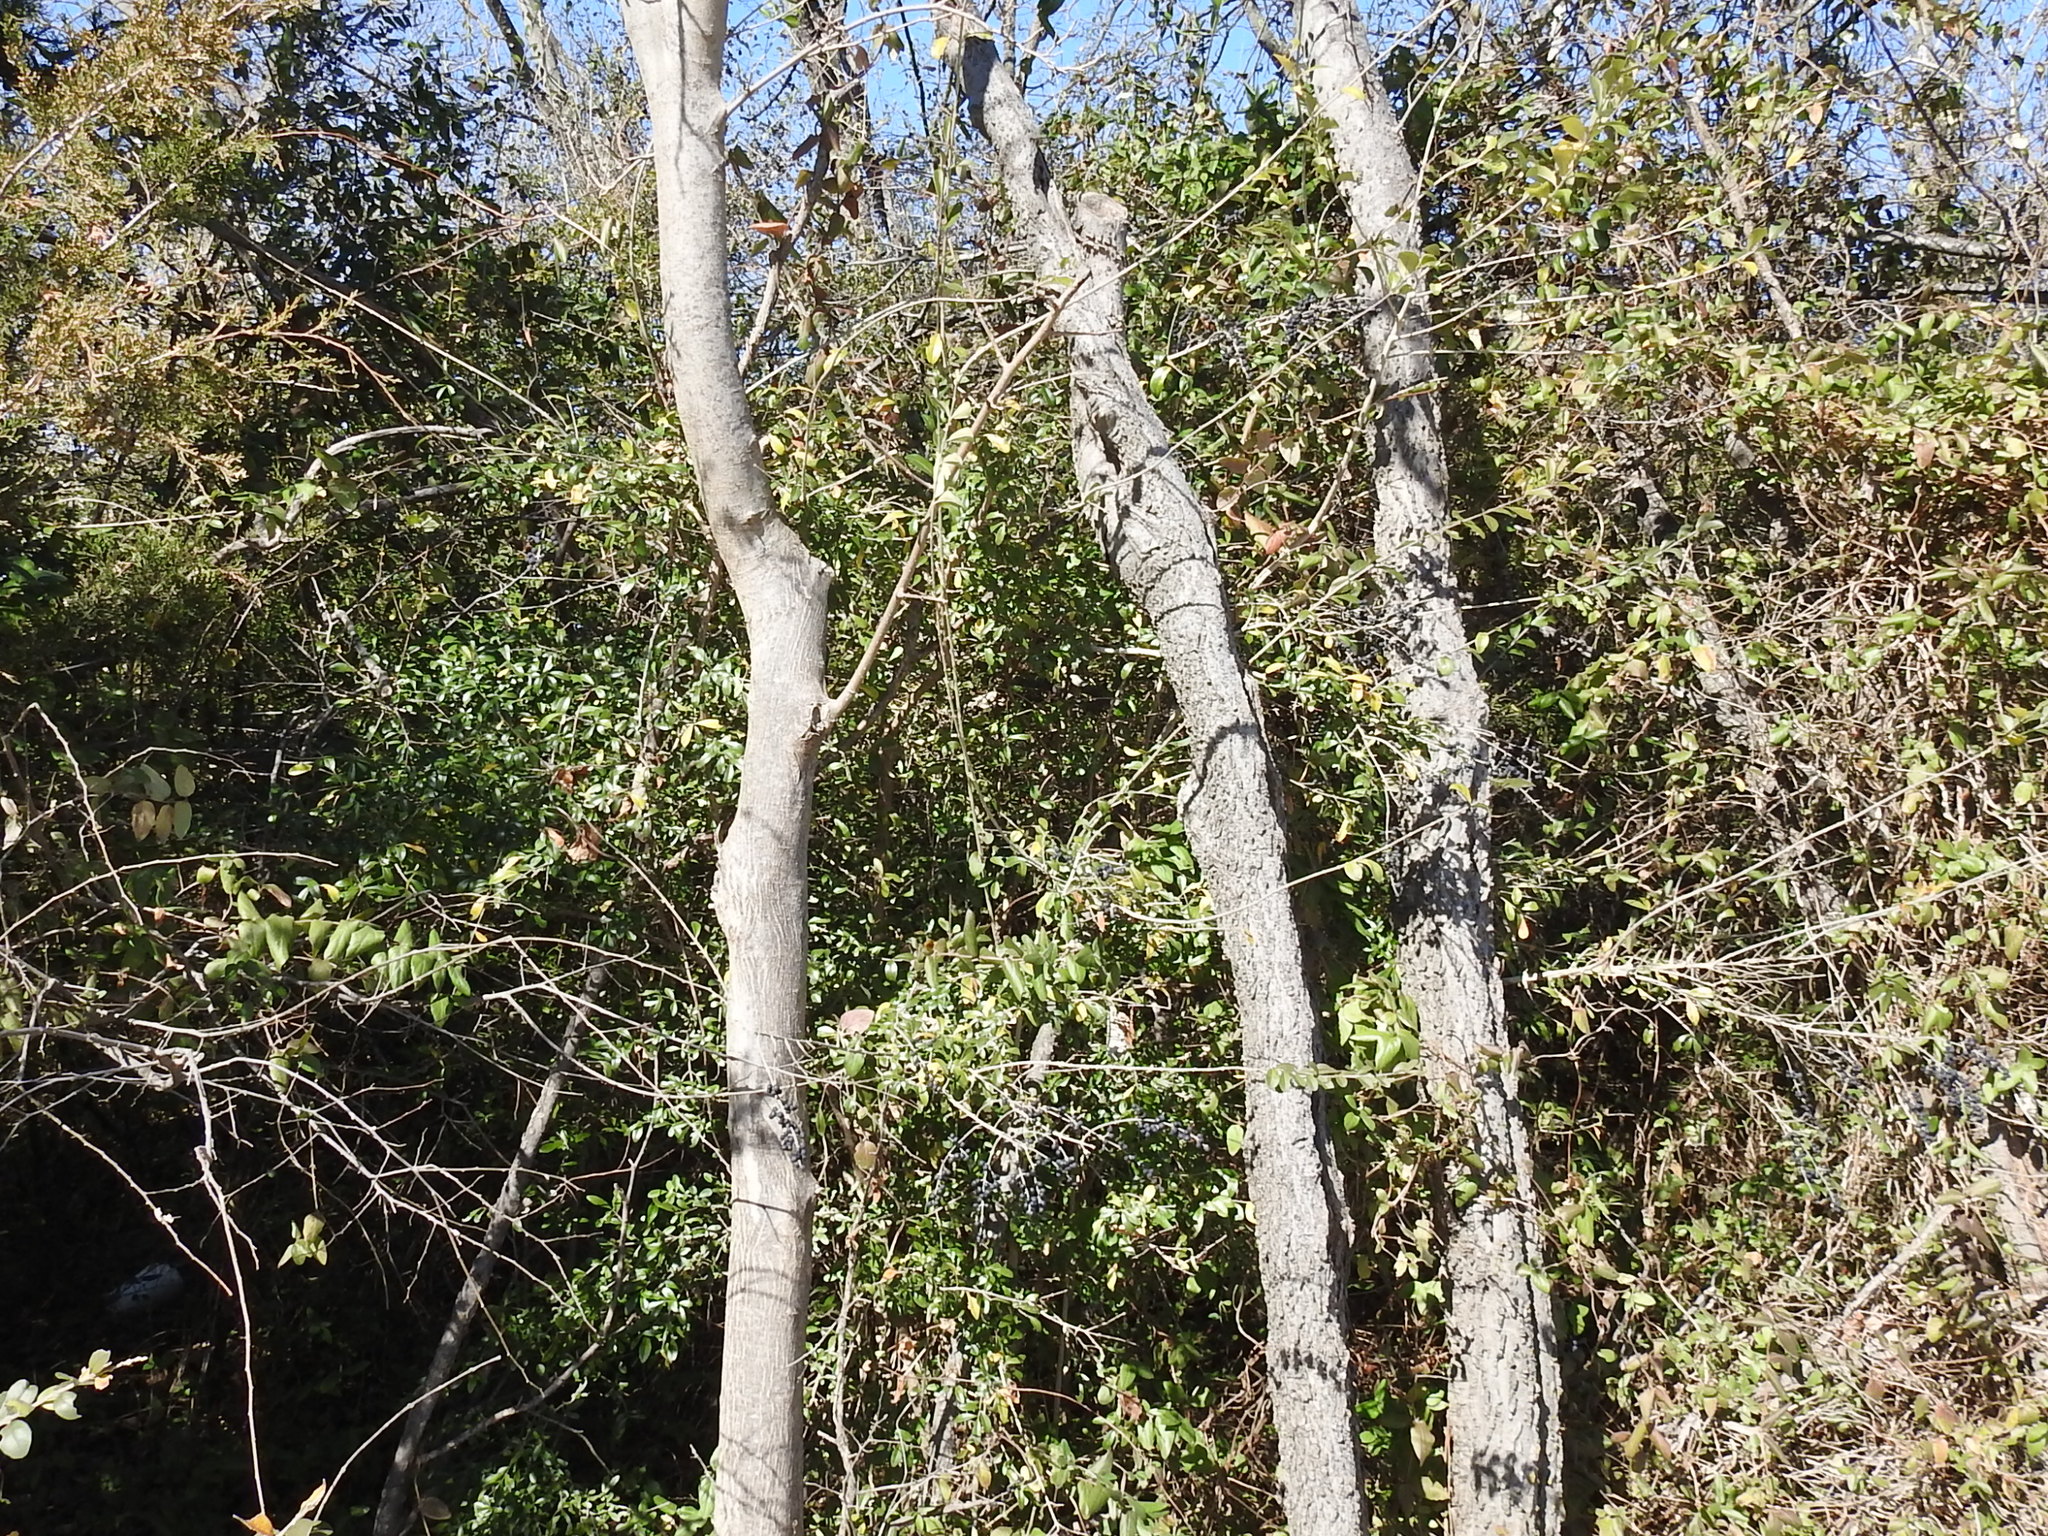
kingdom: Plantae
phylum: Tracheophyta
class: Magnoliopsida
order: Lamiales
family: Oleaceae
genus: Ligustrum
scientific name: Ligustrum quihoui
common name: Waxyleaf privet
